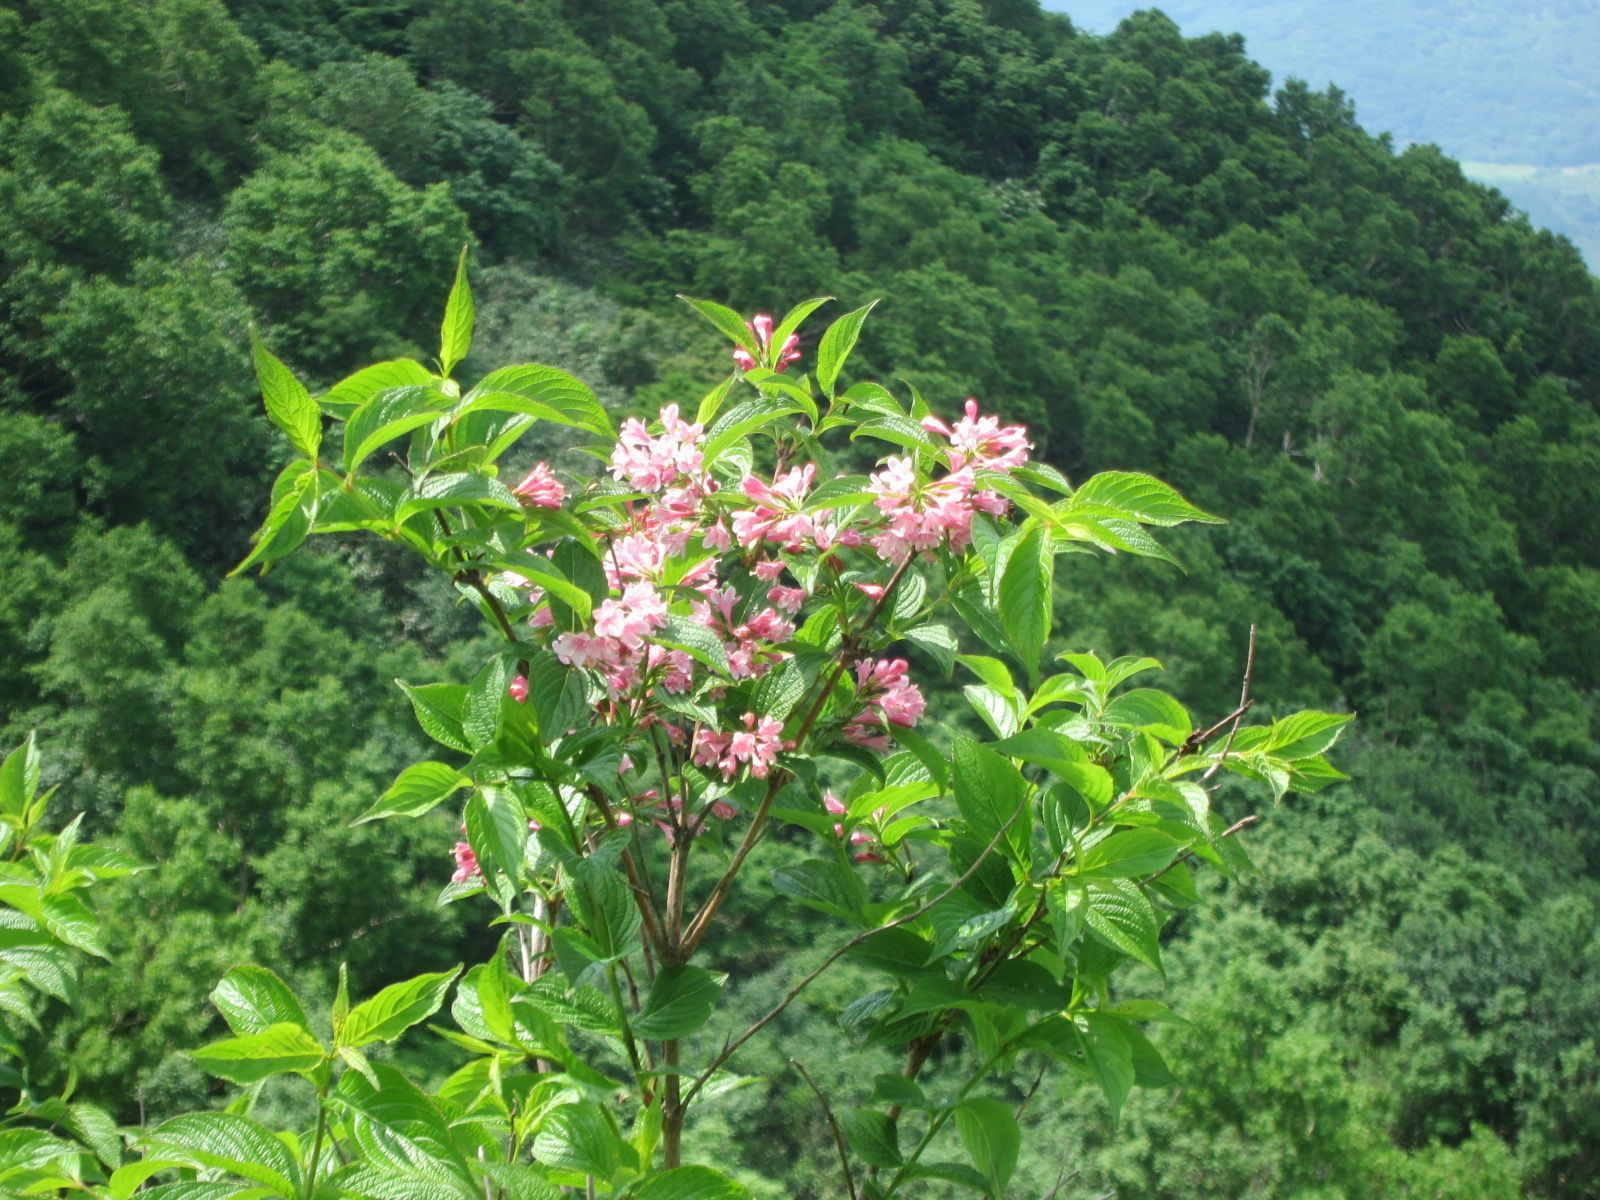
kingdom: Plantae
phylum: Tracheophyta
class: Magnoliopsida
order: Dipsacales
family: Caprifoliaceae
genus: Weigela
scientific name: Weigela hortensis
